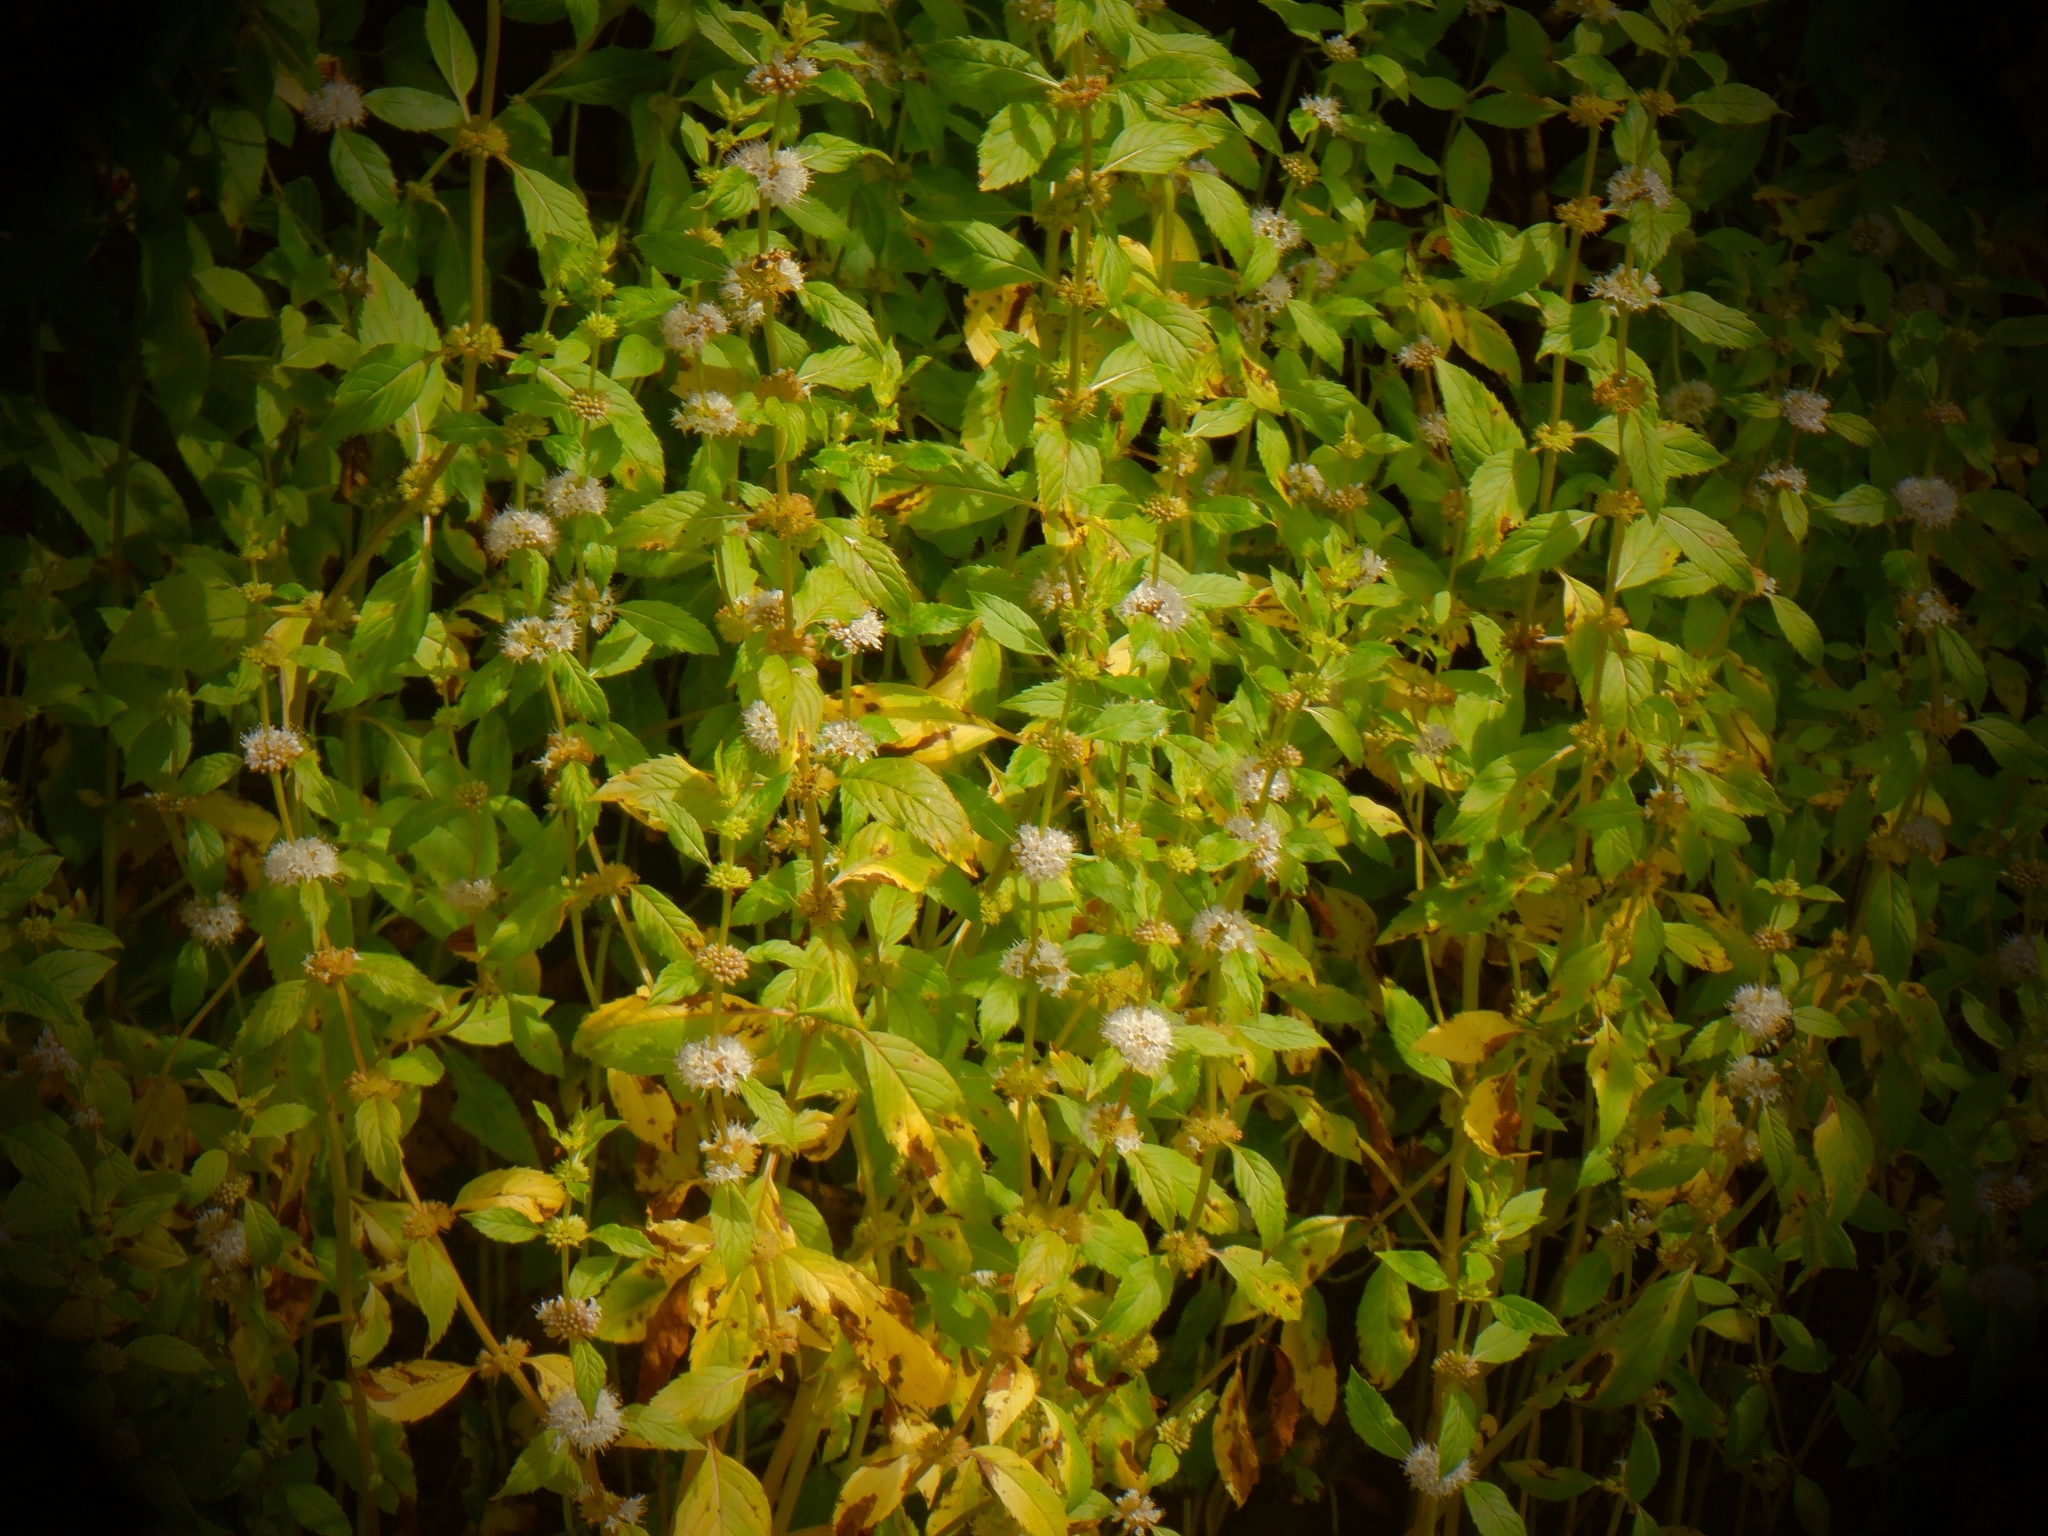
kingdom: Plantae
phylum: Tracheophyta
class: Magnoliopsida
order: Lamiales
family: Lamiaceae
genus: Mentha
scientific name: Mentha canadensis
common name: American corn mint
